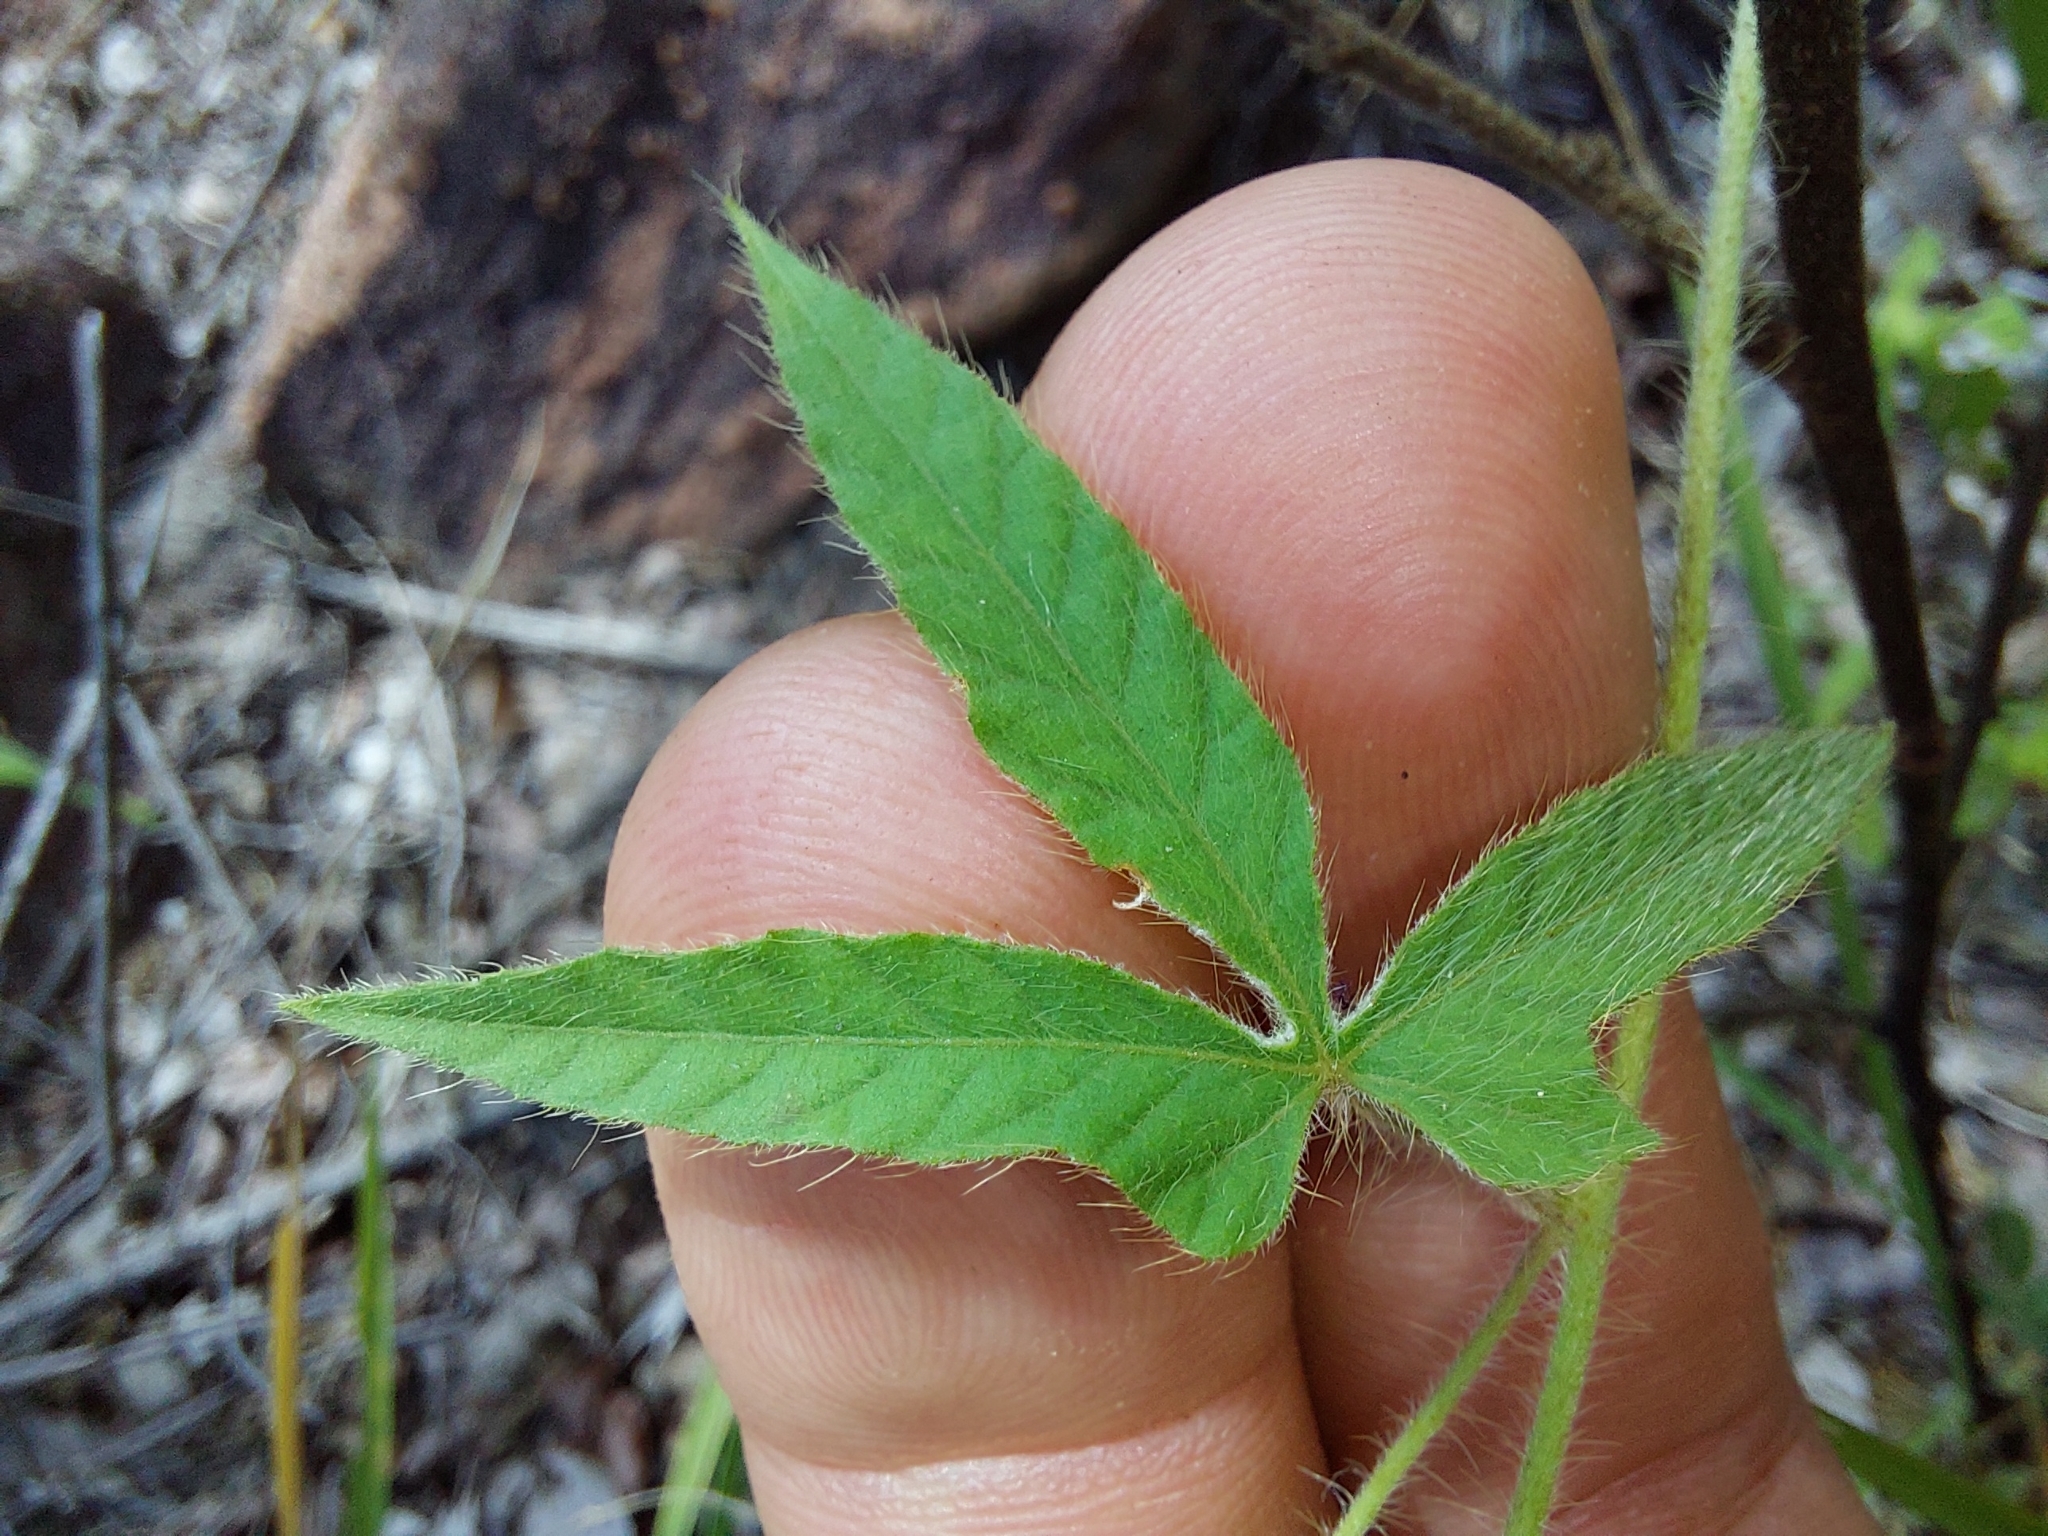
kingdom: Plantae
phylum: Tracheophyta
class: Magnoliopsida
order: Solanales
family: Convolvulaceae
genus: Ipomoea
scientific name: Ipomoea magnusiana
